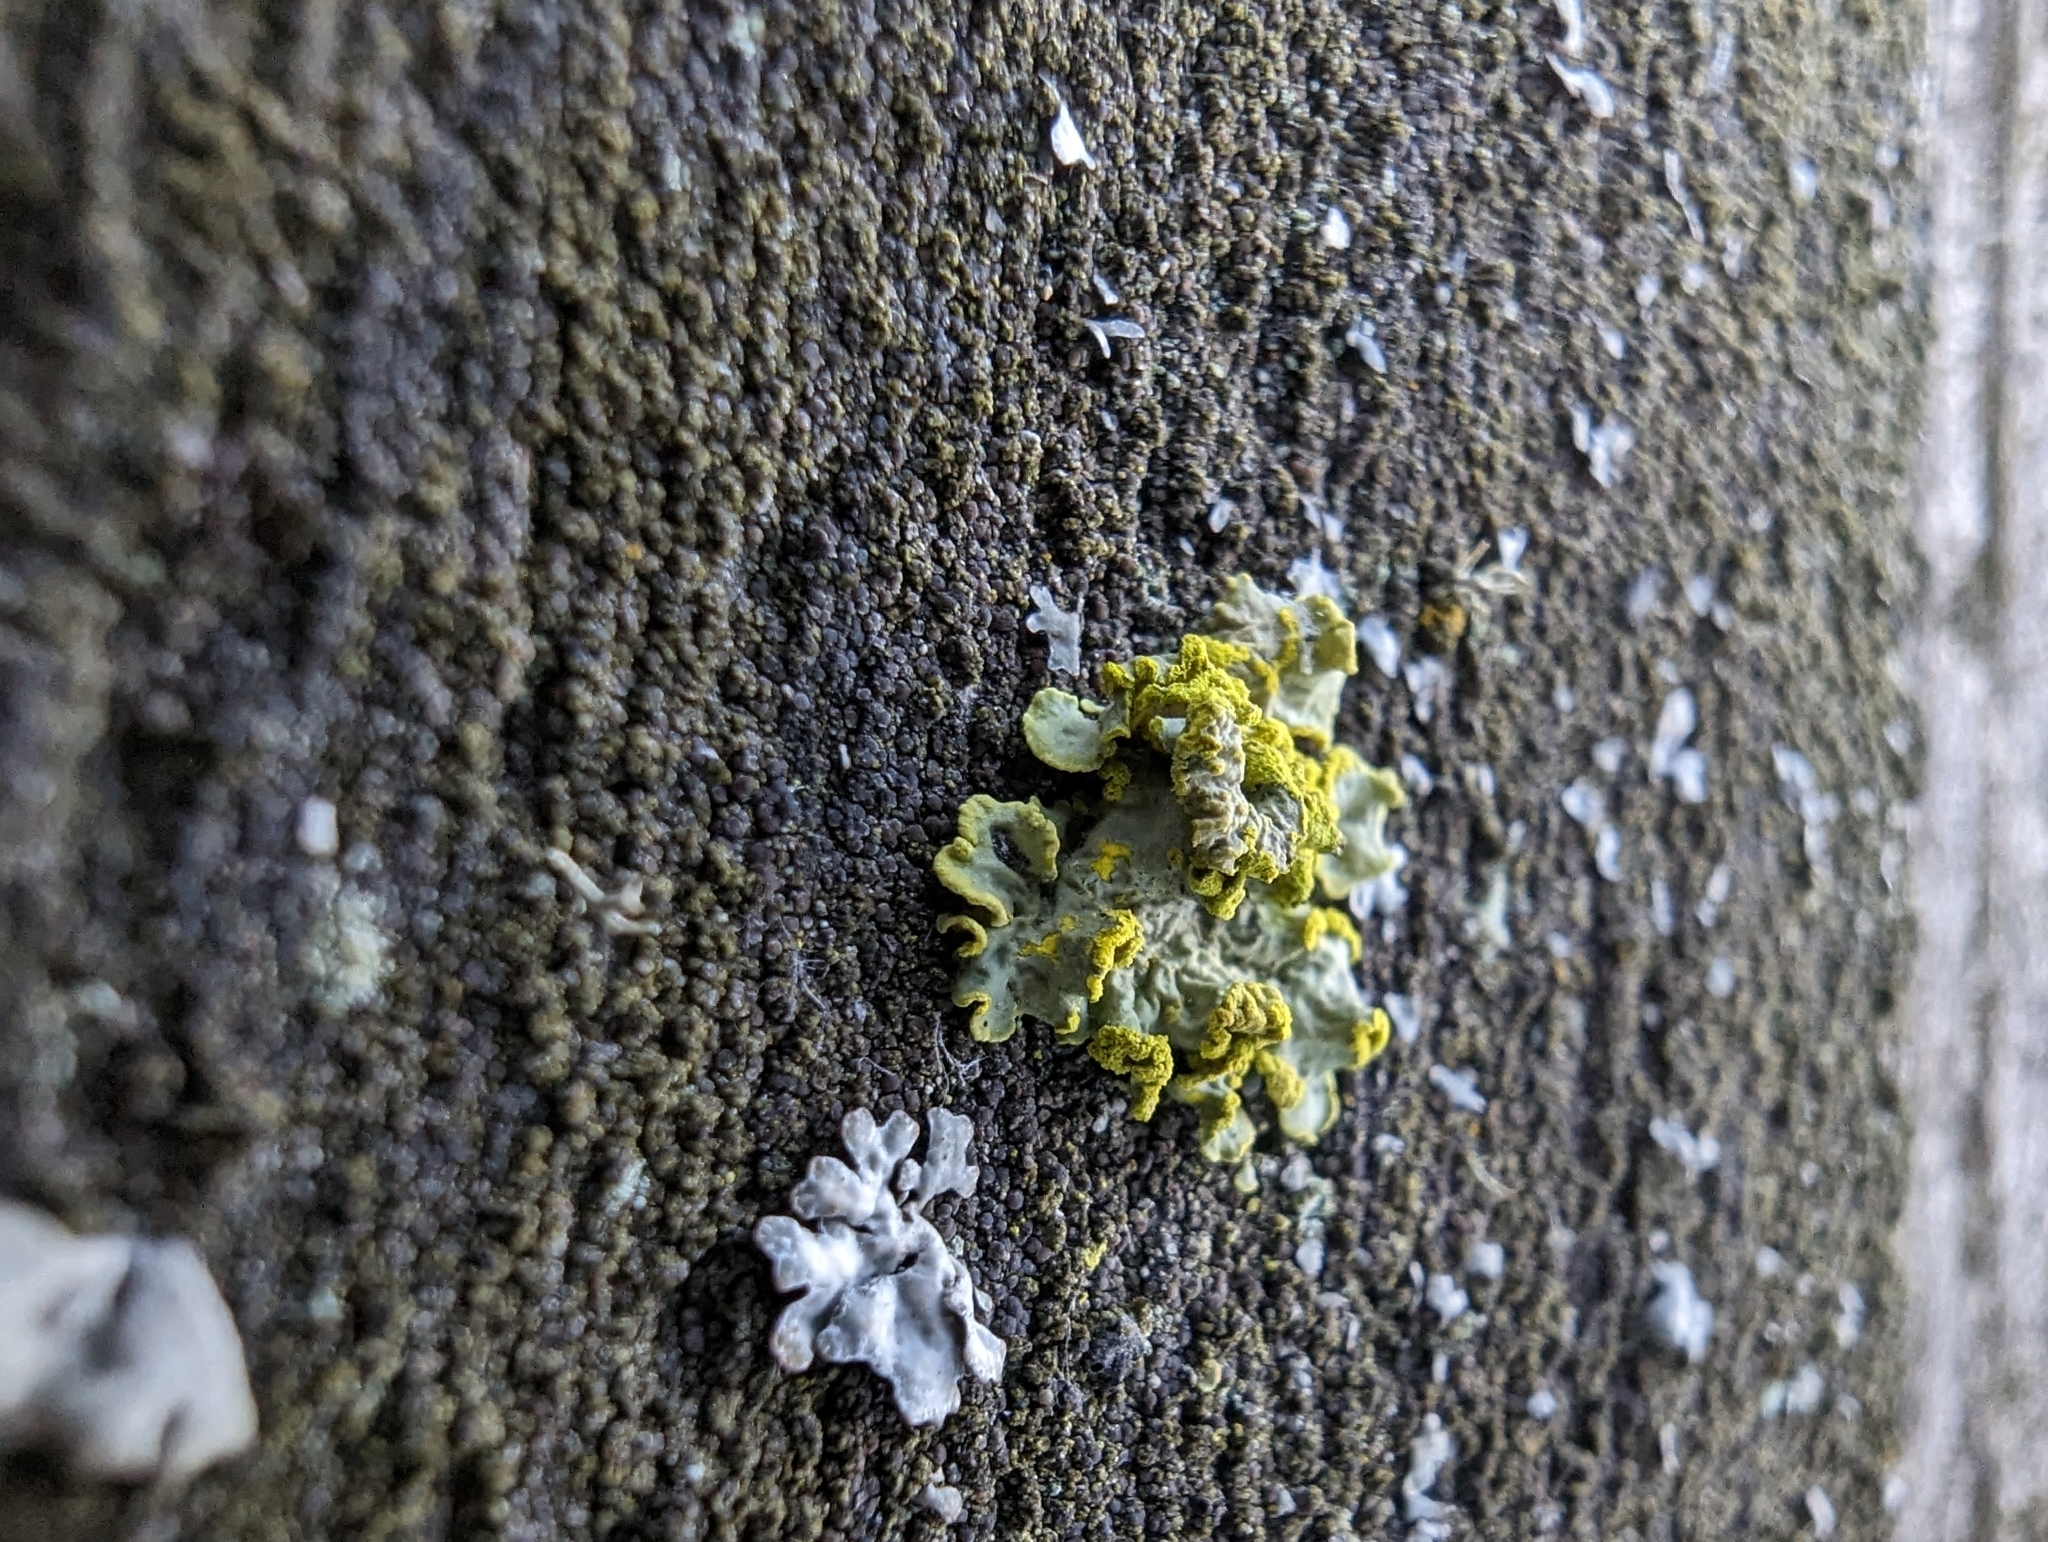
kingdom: Fungi
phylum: Ascomycota
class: Lecanoromycetes
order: Lecanorales
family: Parmeliaceae
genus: Vulpicida
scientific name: Vulpicida pinastri
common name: Powdered sunshine lichen
